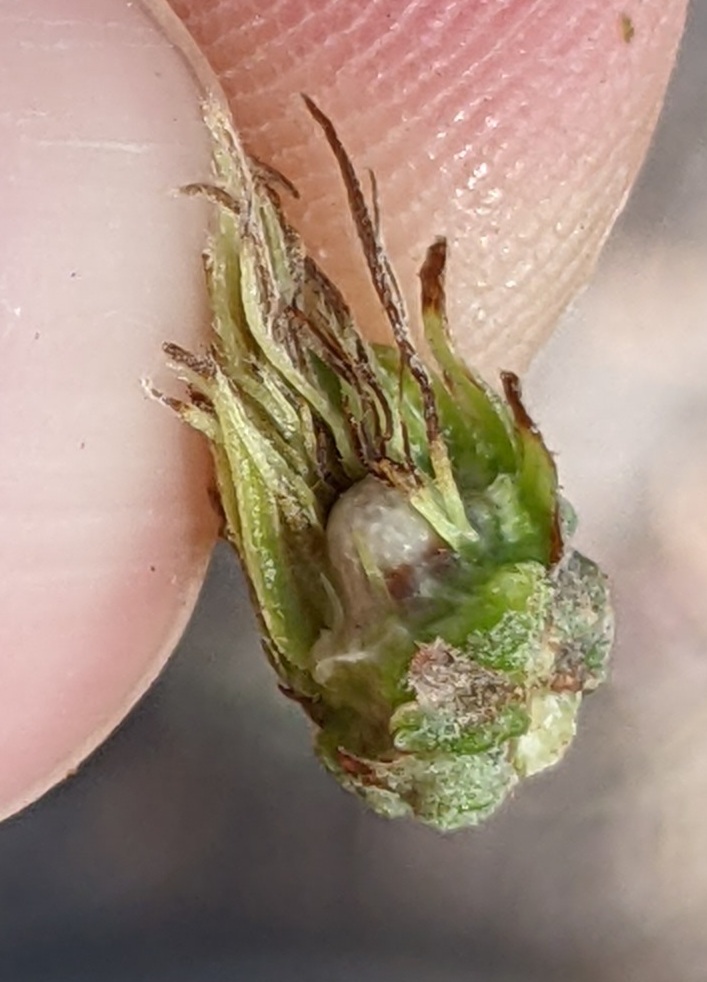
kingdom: Animalia
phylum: Arthropoda
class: Insecta
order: Hymenoptera
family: Cynipidae
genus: Andricus
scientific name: Andricus quercusfoliatus
